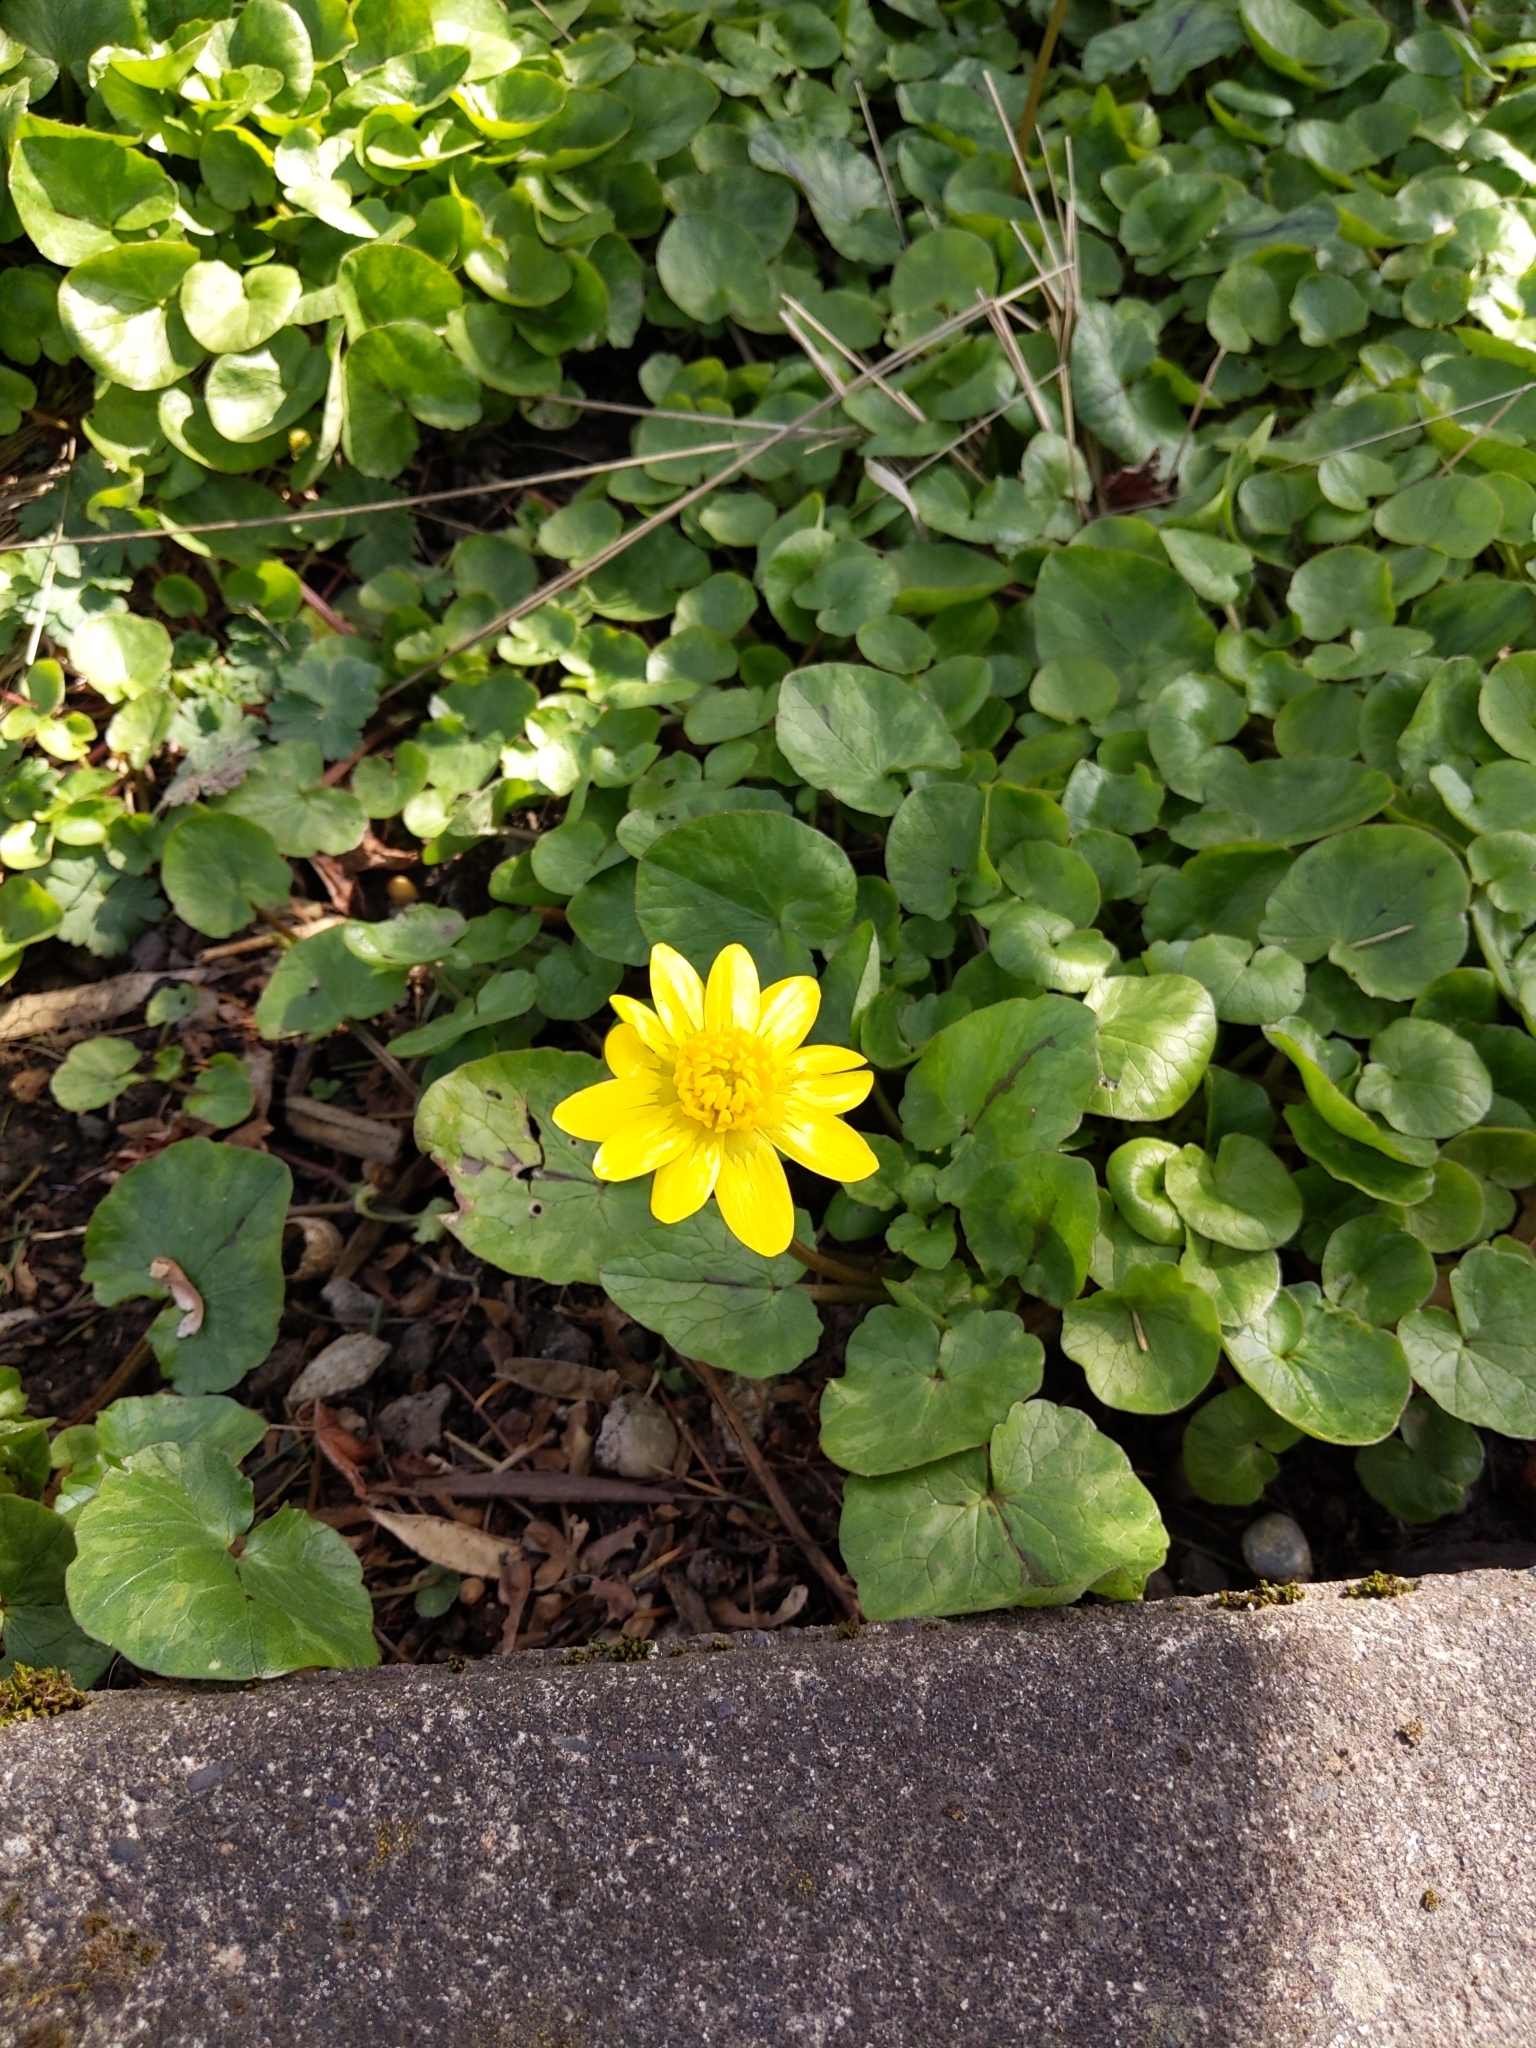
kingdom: Plantae
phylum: Tracheophyta
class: Magnoliopsida
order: Ranunculales
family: Ranunculaceae
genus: Ficaria
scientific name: Ficaria verna
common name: Lesser celandine
